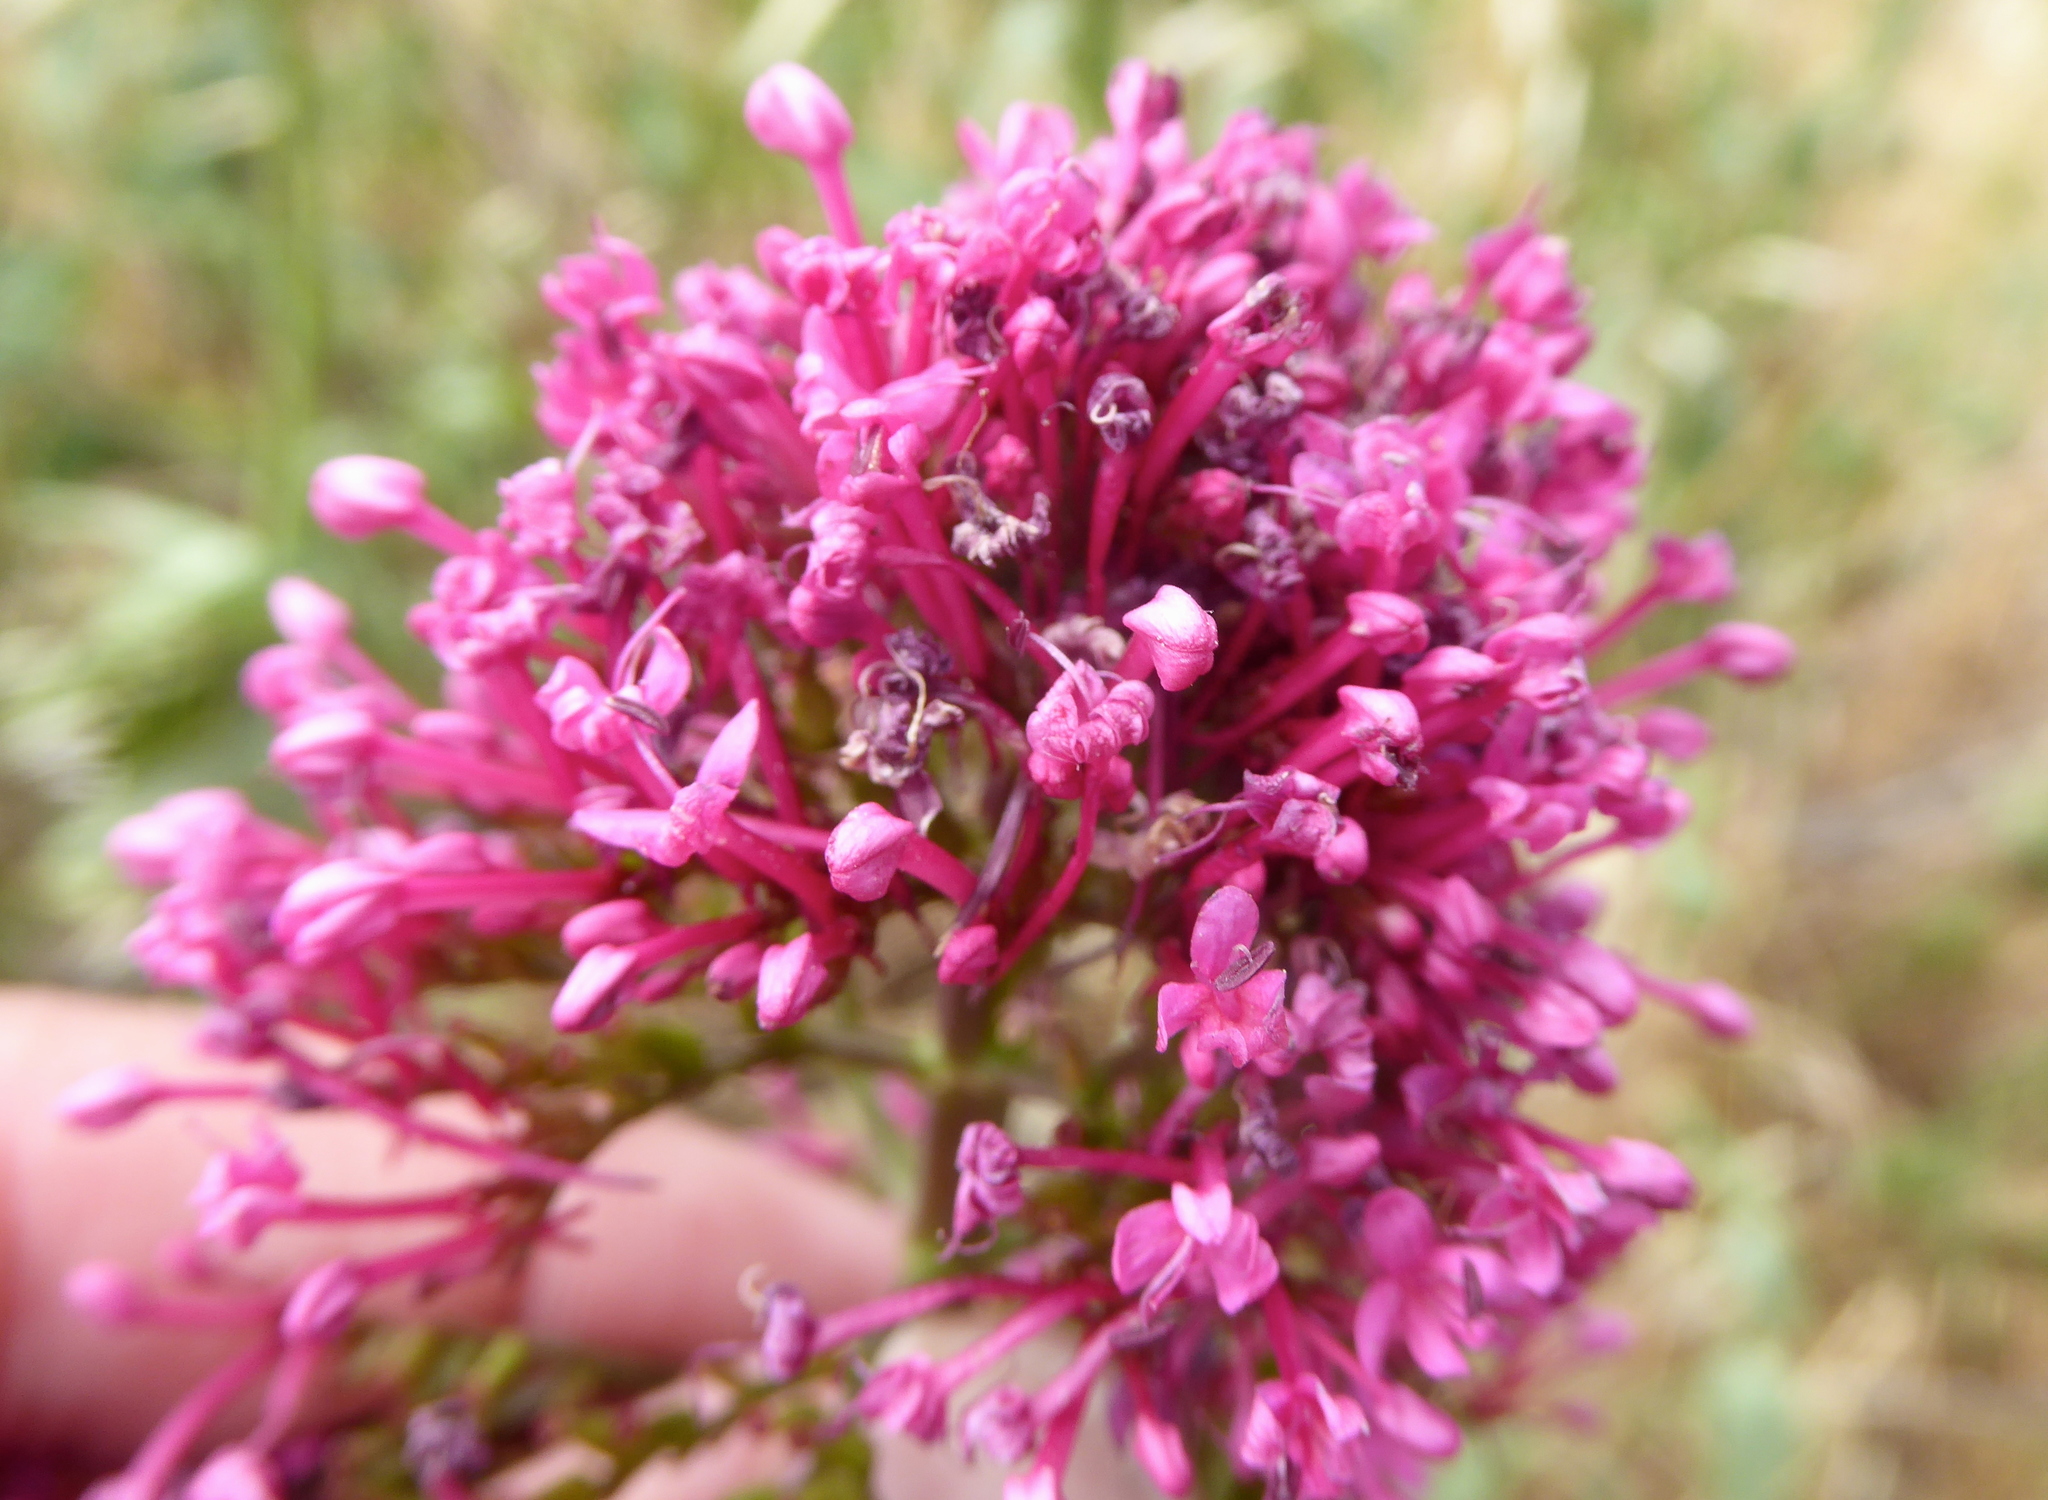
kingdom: Plantae
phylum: Tracheophyta
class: Magnoliopsida
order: Dipsacales
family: Caprifoliaceae
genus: Centranthus
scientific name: Centranthus ruber
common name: Red valerian
